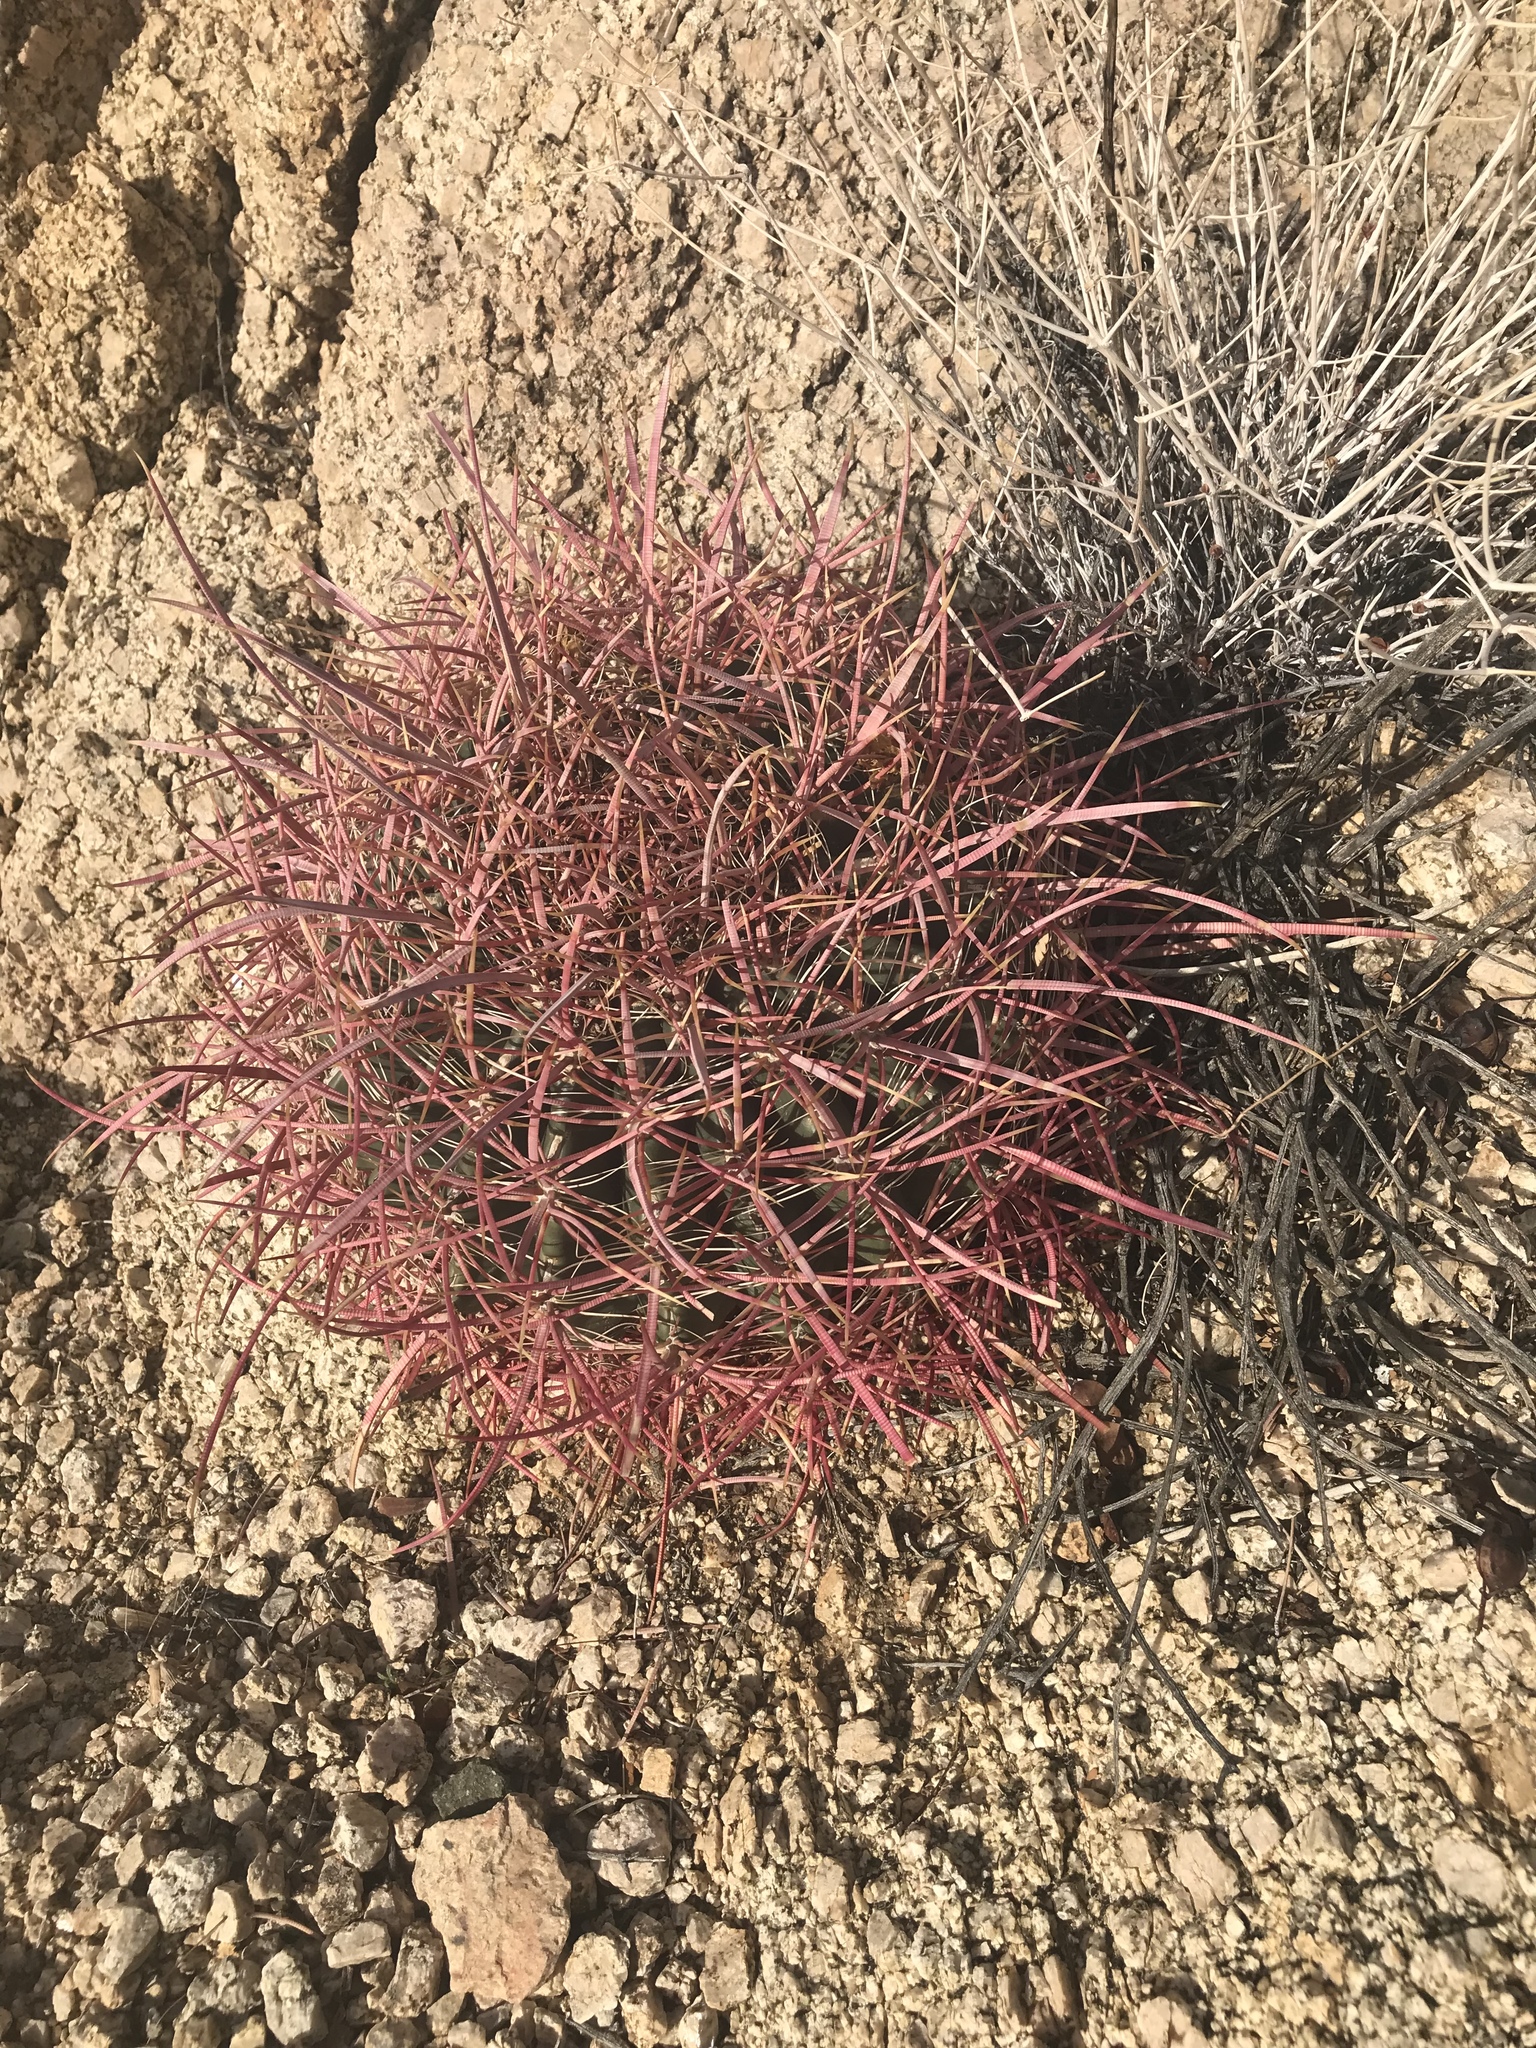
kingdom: Plantae
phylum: Tracheophyta
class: Magnoliopsida
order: Caryophyllales
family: Cactaceae
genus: Ferocactus
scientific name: Ferocactus cylindraceus
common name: California barrel cactus
